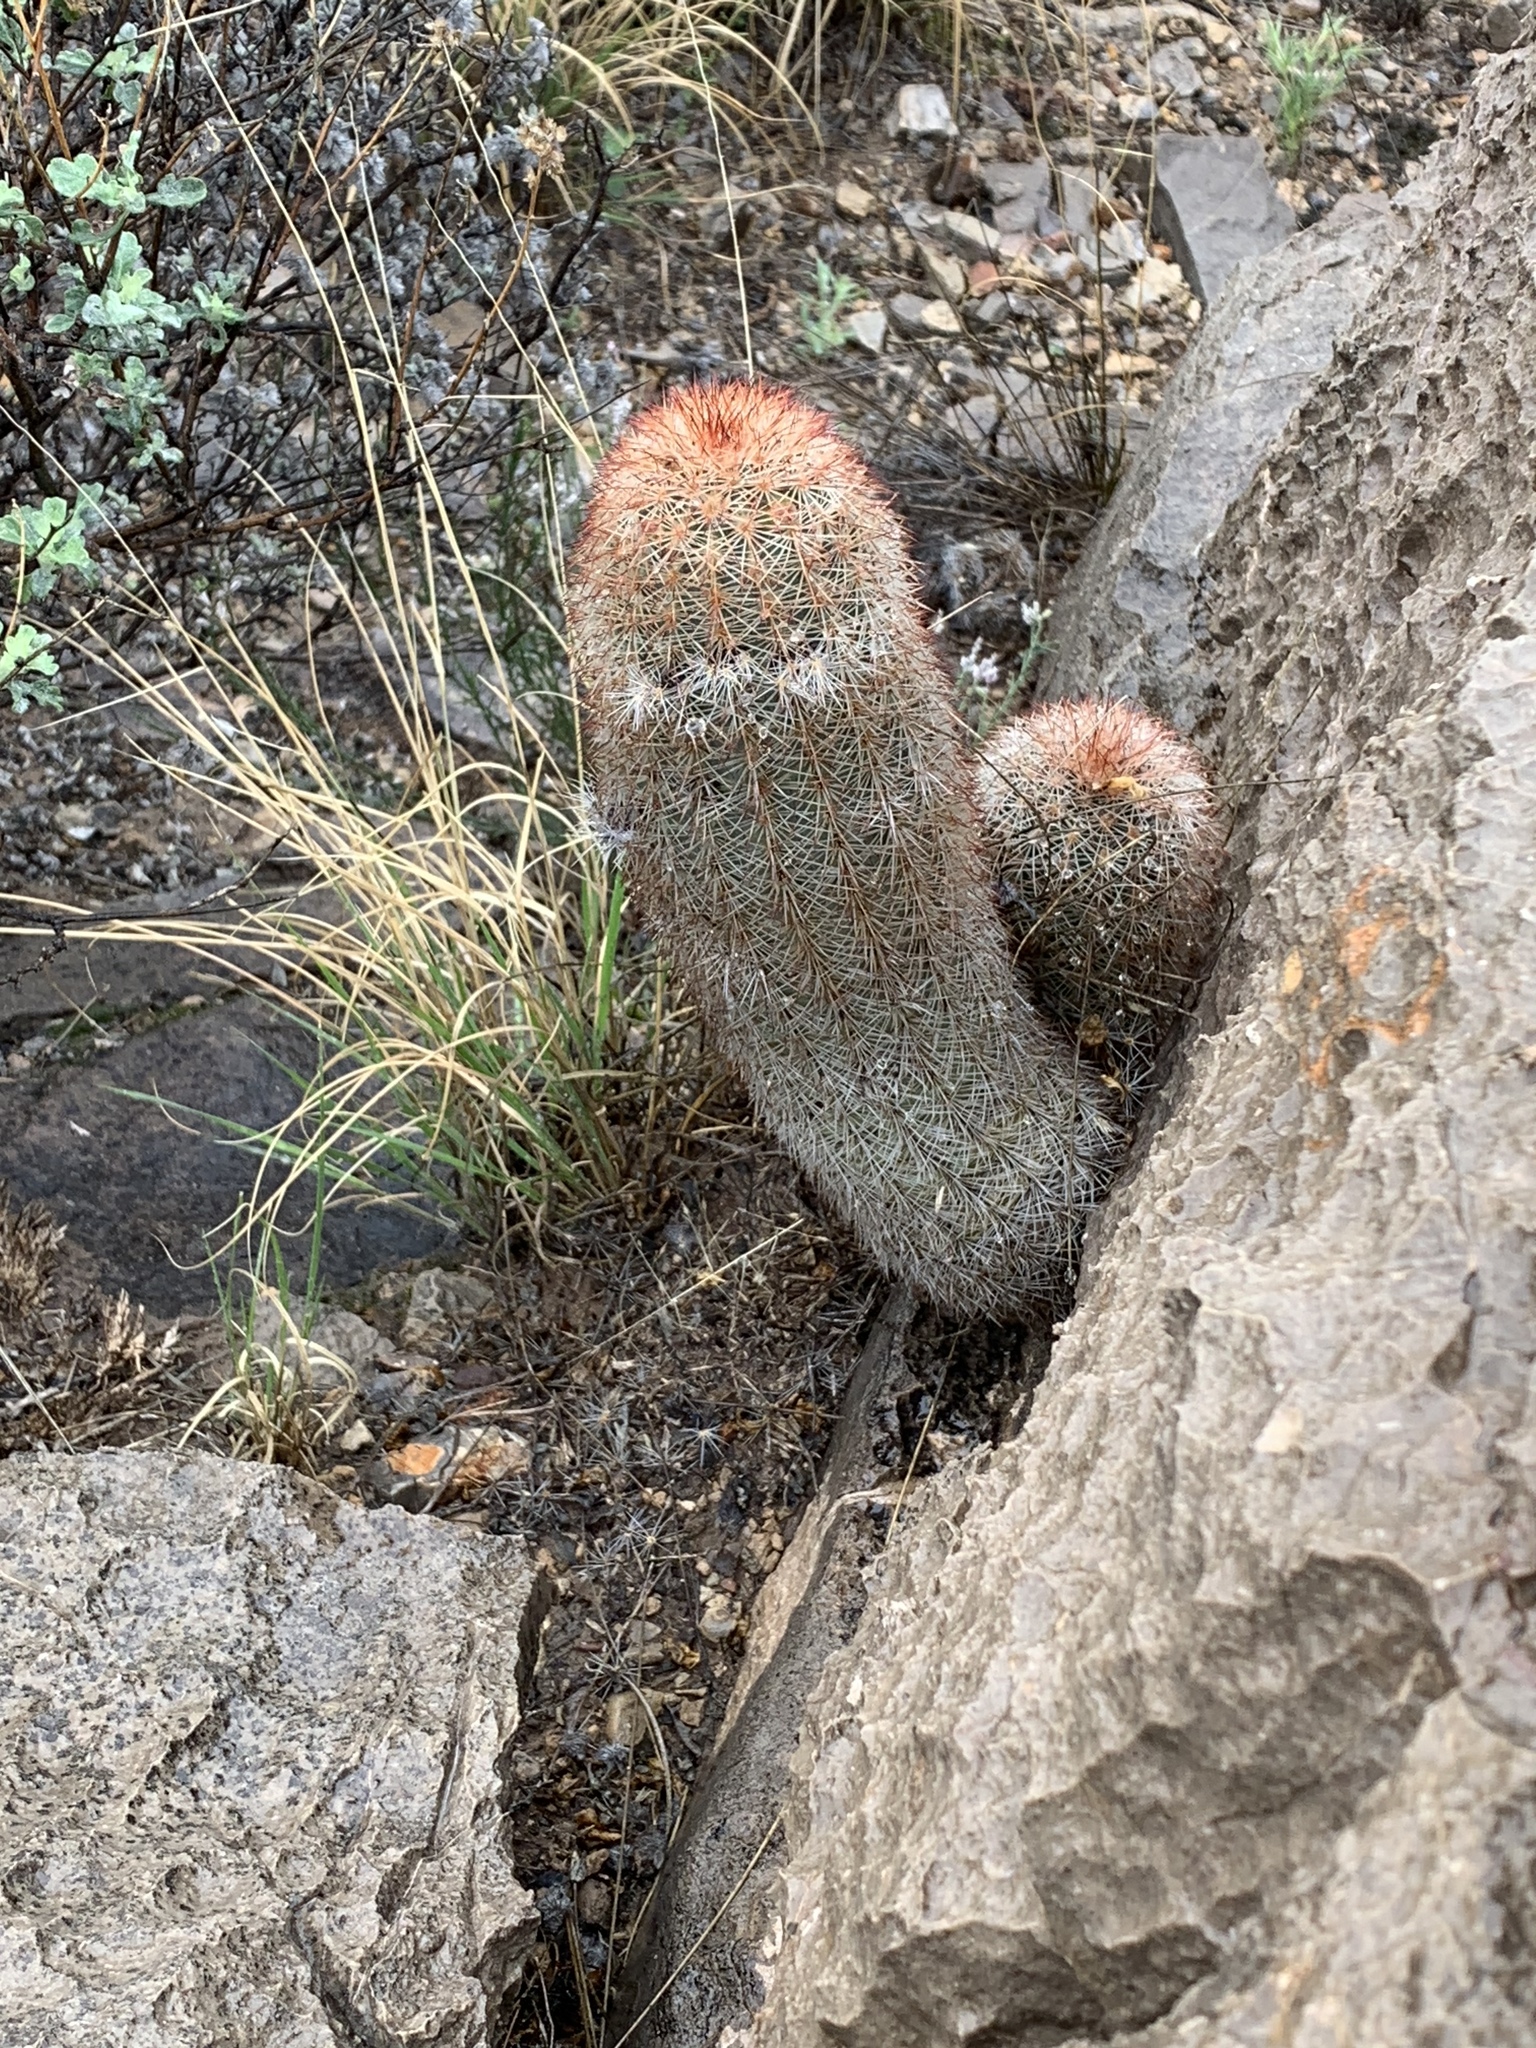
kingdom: Plantae
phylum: Tracheophyta
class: Magnoliopsida
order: Caryophyllales
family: Cactaceae
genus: Echinocereus
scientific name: Echinocereus dasyacanthus
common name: Spiny hedgehog cactus
